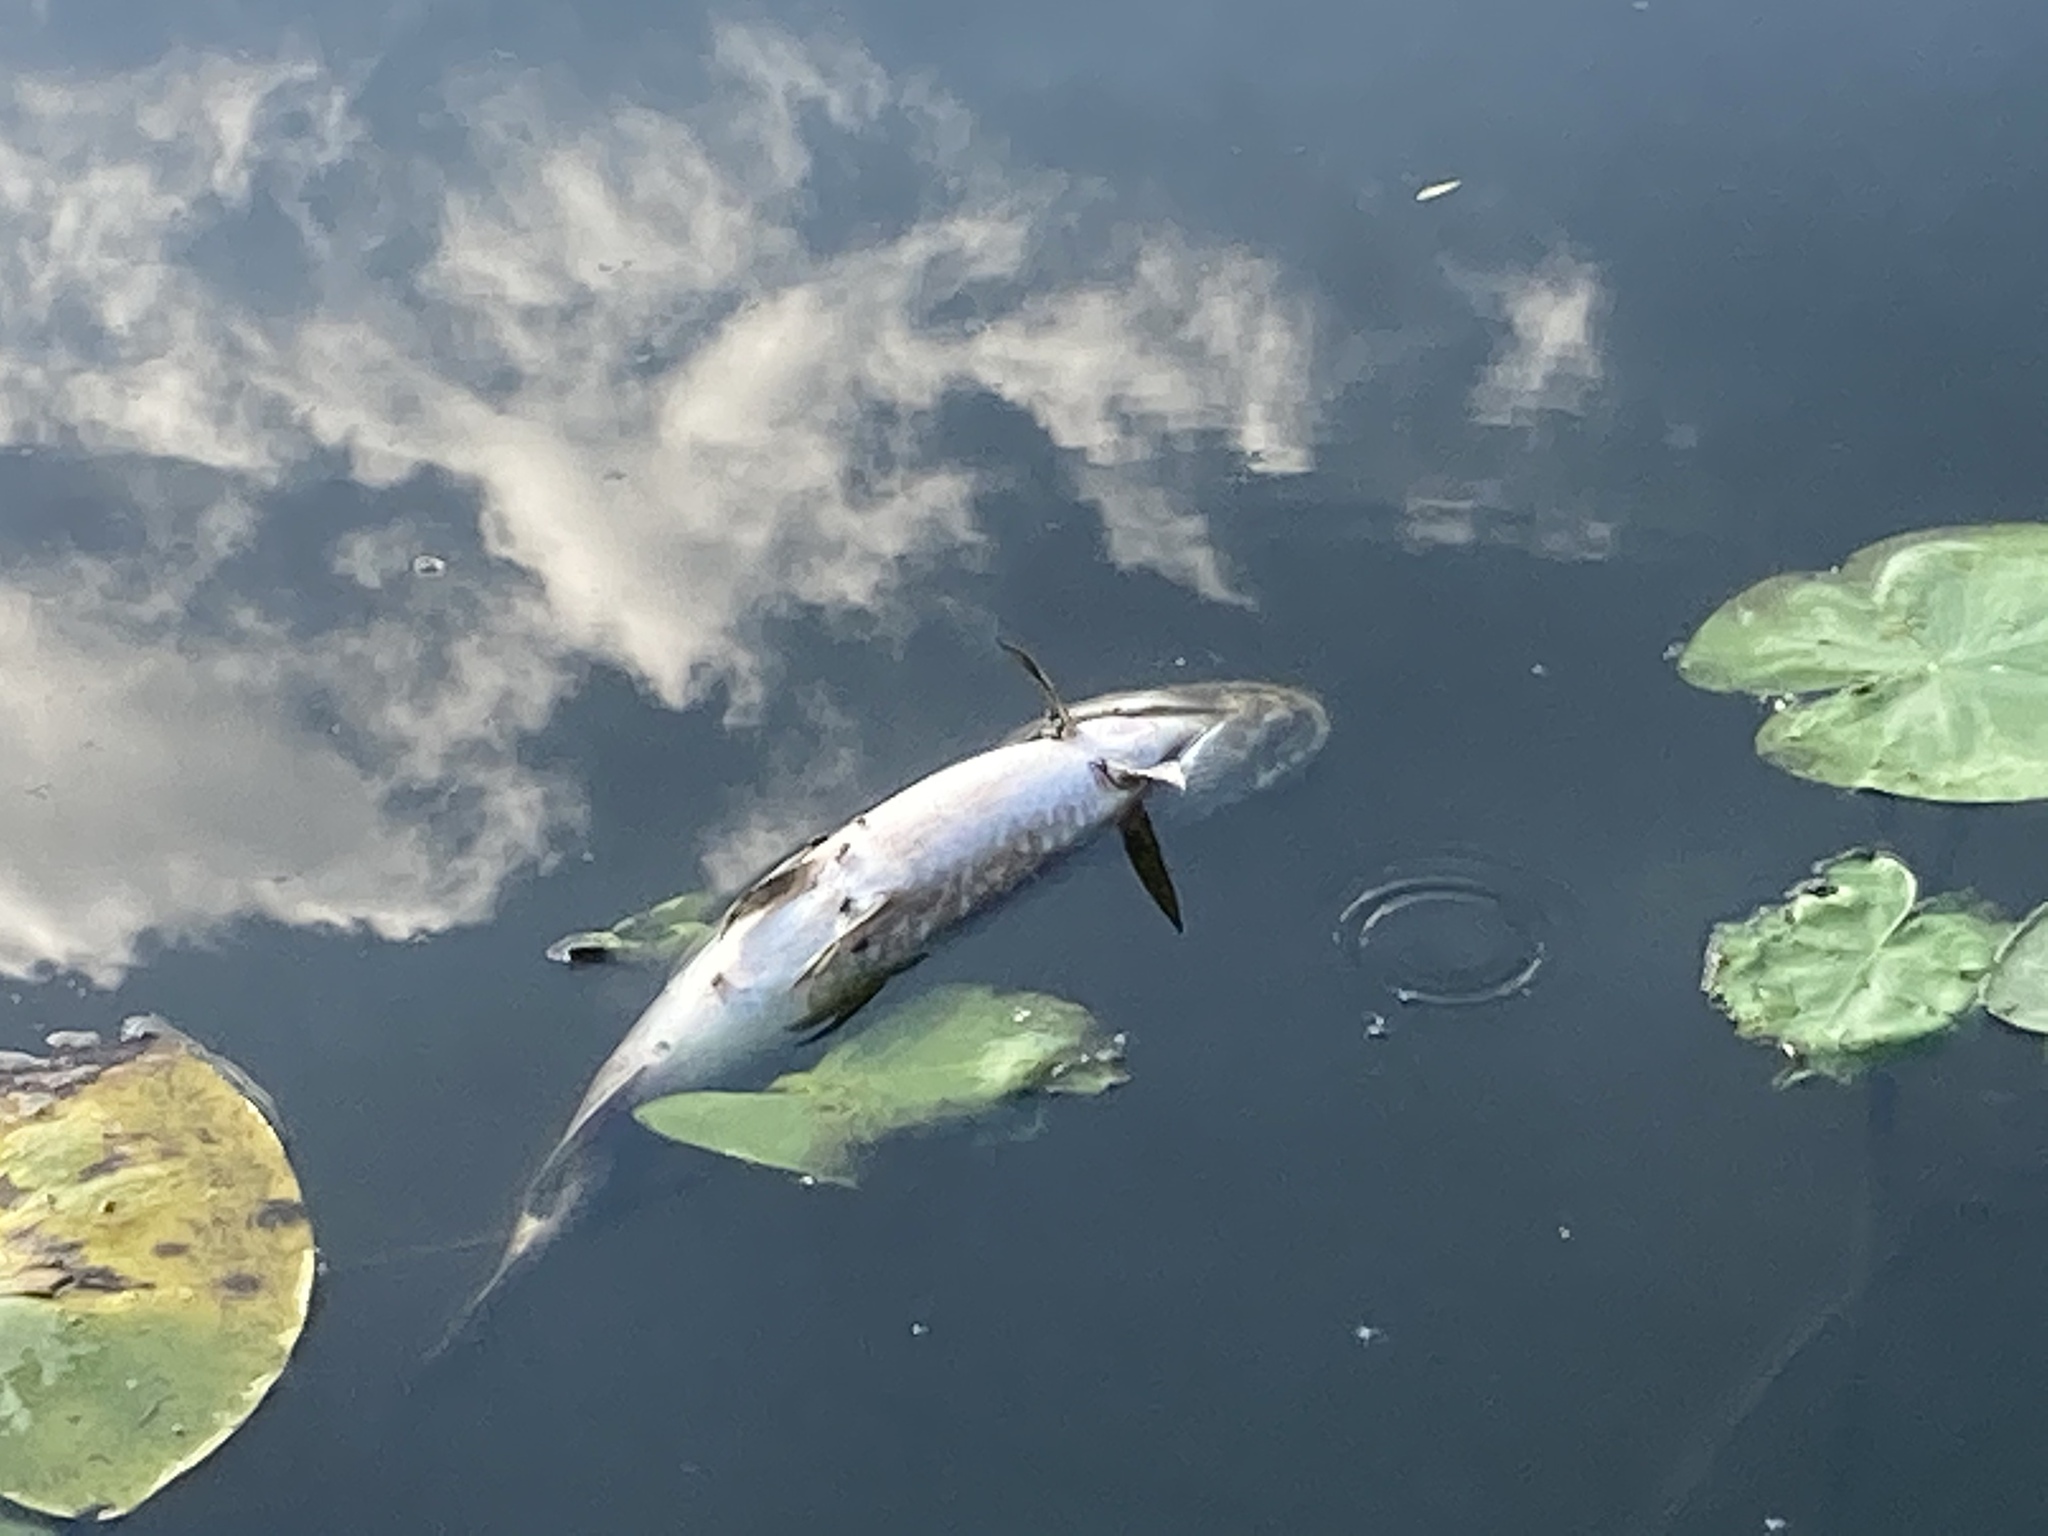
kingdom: Animalia
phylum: Chordata
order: Esociformes
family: Esocidae
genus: Esox
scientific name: Esox lucius
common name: Northern pike
